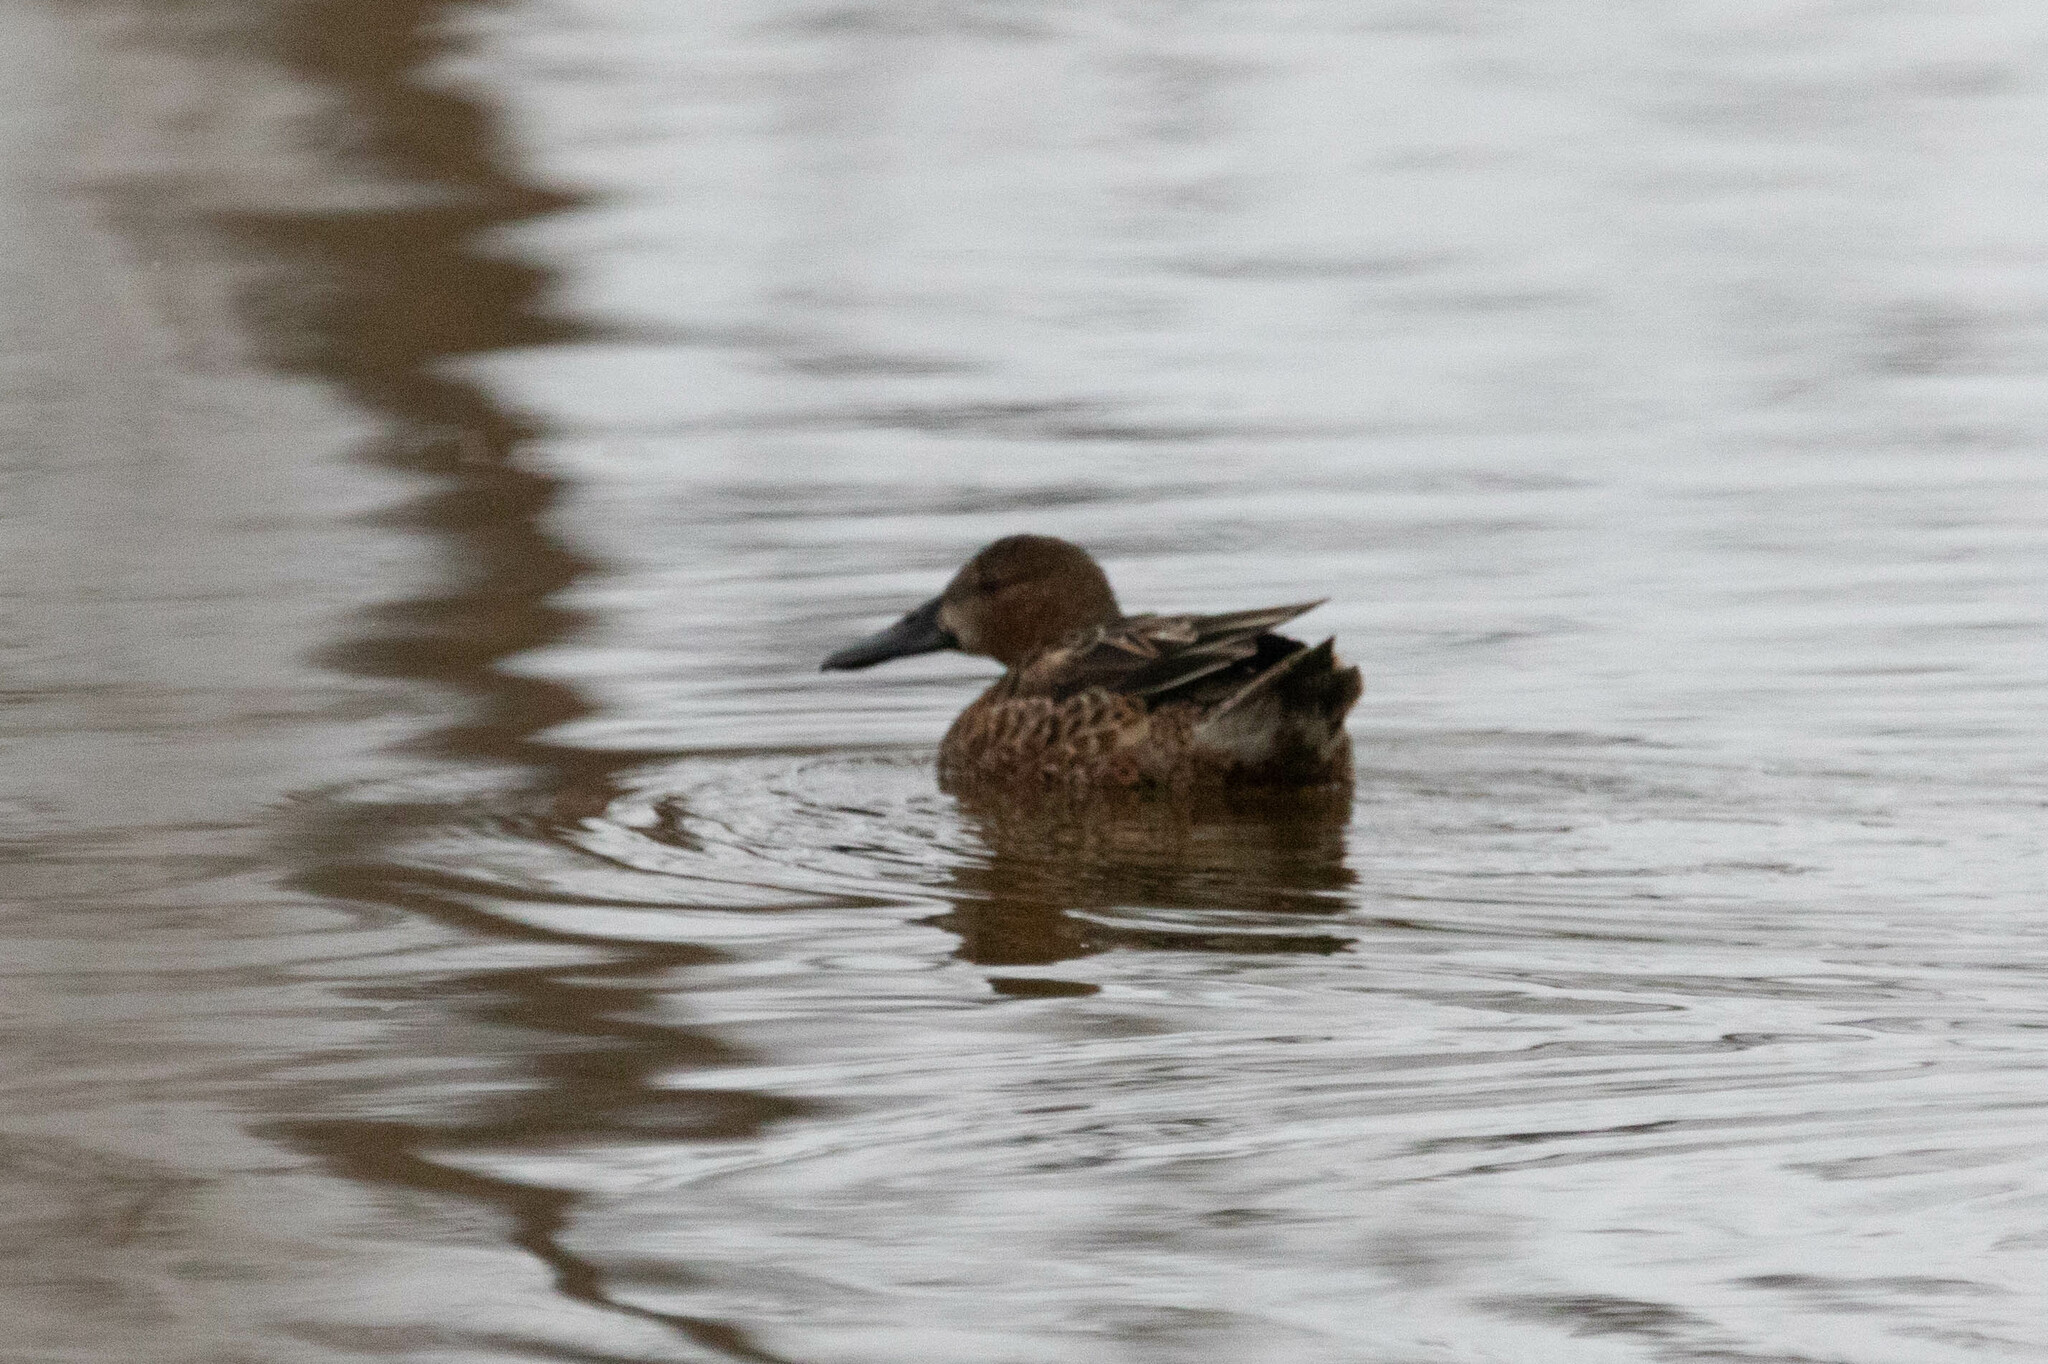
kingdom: Animalia
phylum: Chordata
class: Aves
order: Anseriformes
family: Anatidae
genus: Spatula
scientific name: Spatula cyanoptera
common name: Cinnamon teal
